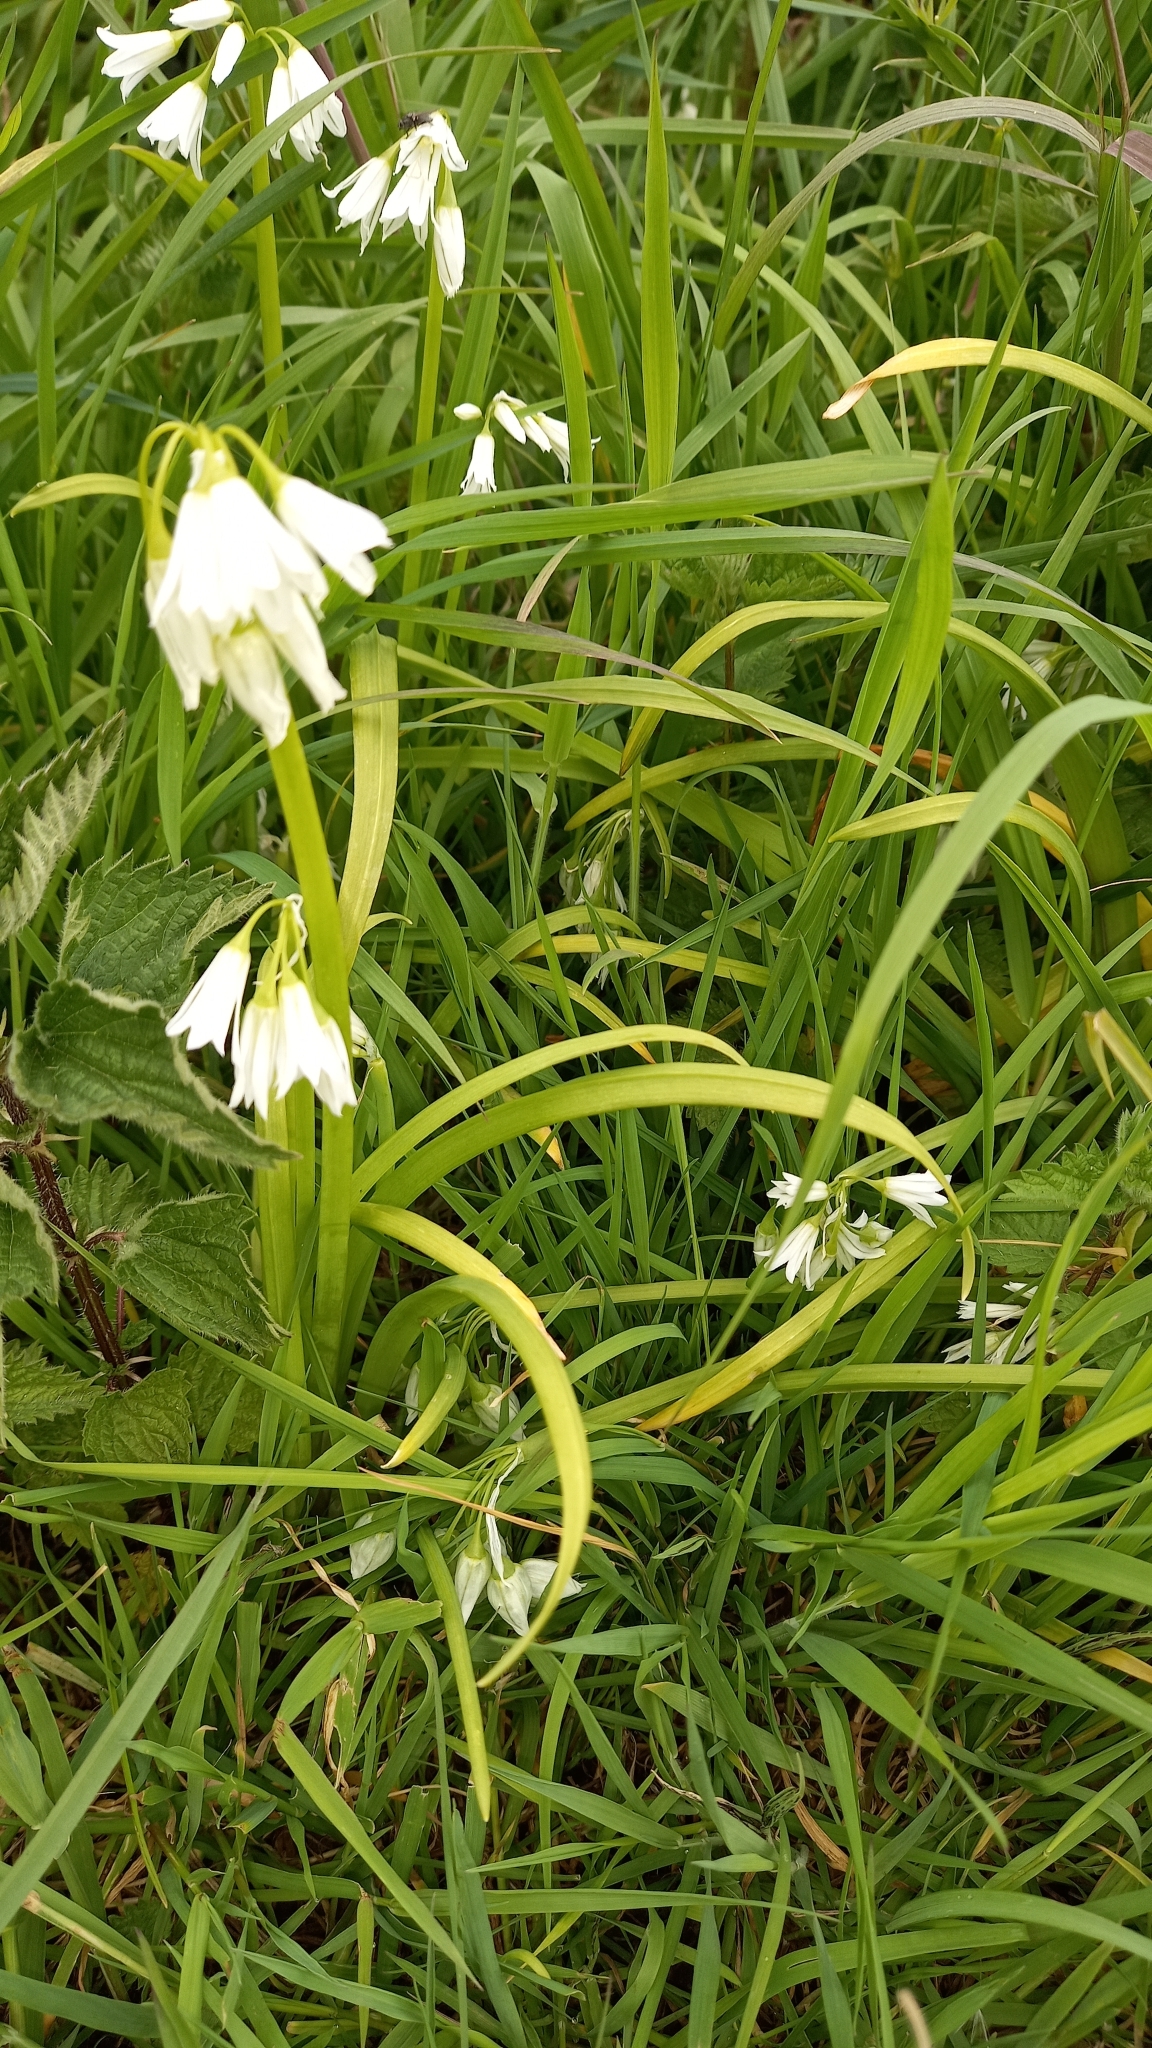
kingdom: Plantae
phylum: Tracheophyta
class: Liliopsida
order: Asparagales
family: Amaryllidaceae
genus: Allium
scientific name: Allium triquetrum
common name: Three-cornered garlic
